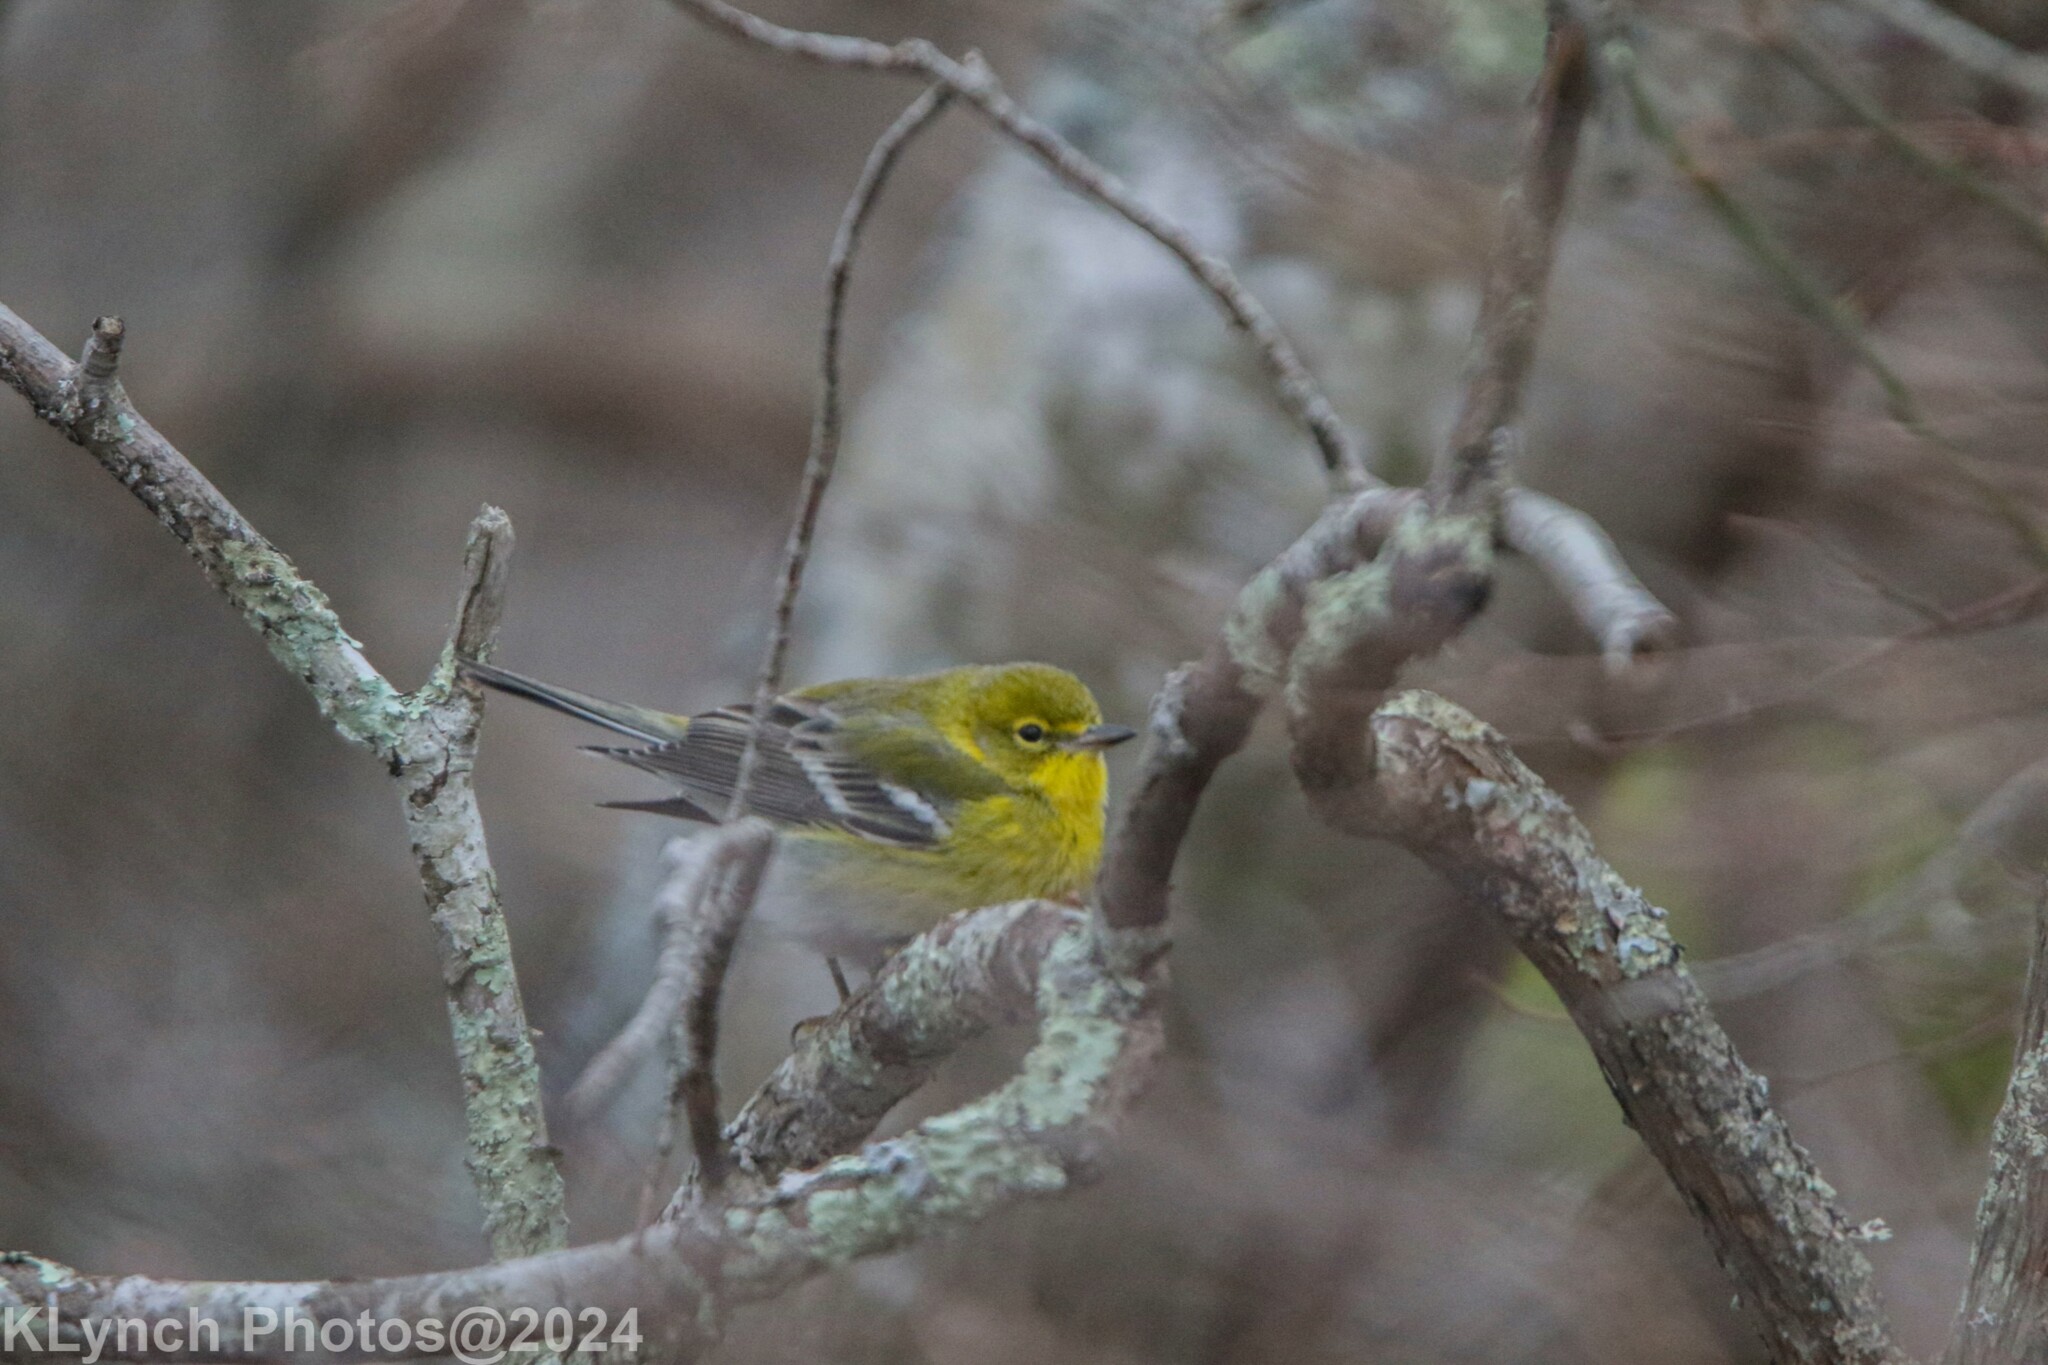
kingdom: Animalia
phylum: Chordata
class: Aves
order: Passeriformes
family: Parulidae
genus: Setophaga
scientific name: Setophaga pinus
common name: Pine warbler
